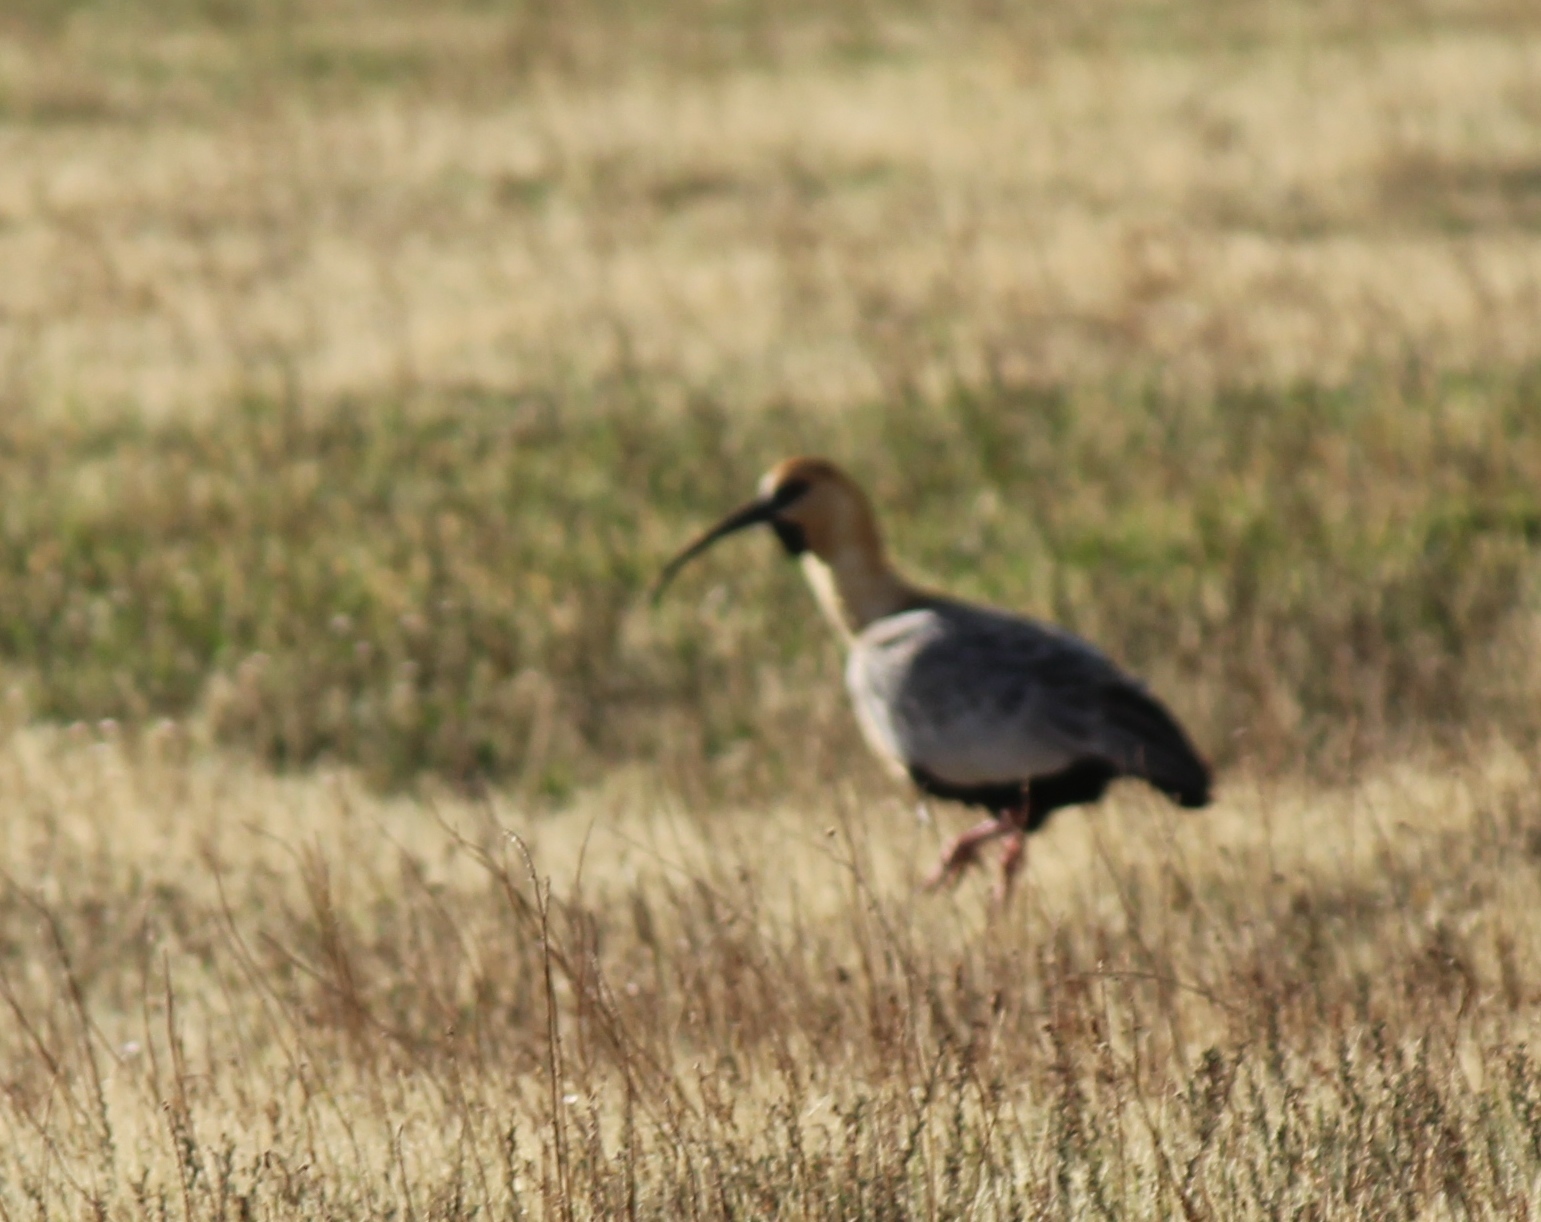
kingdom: Animalia
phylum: Chordata
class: Aves
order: Pelecaniformes
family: Threskiornithidae
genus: Theristicus
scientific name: Theristicus melanopis
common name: Black-faced ibis
